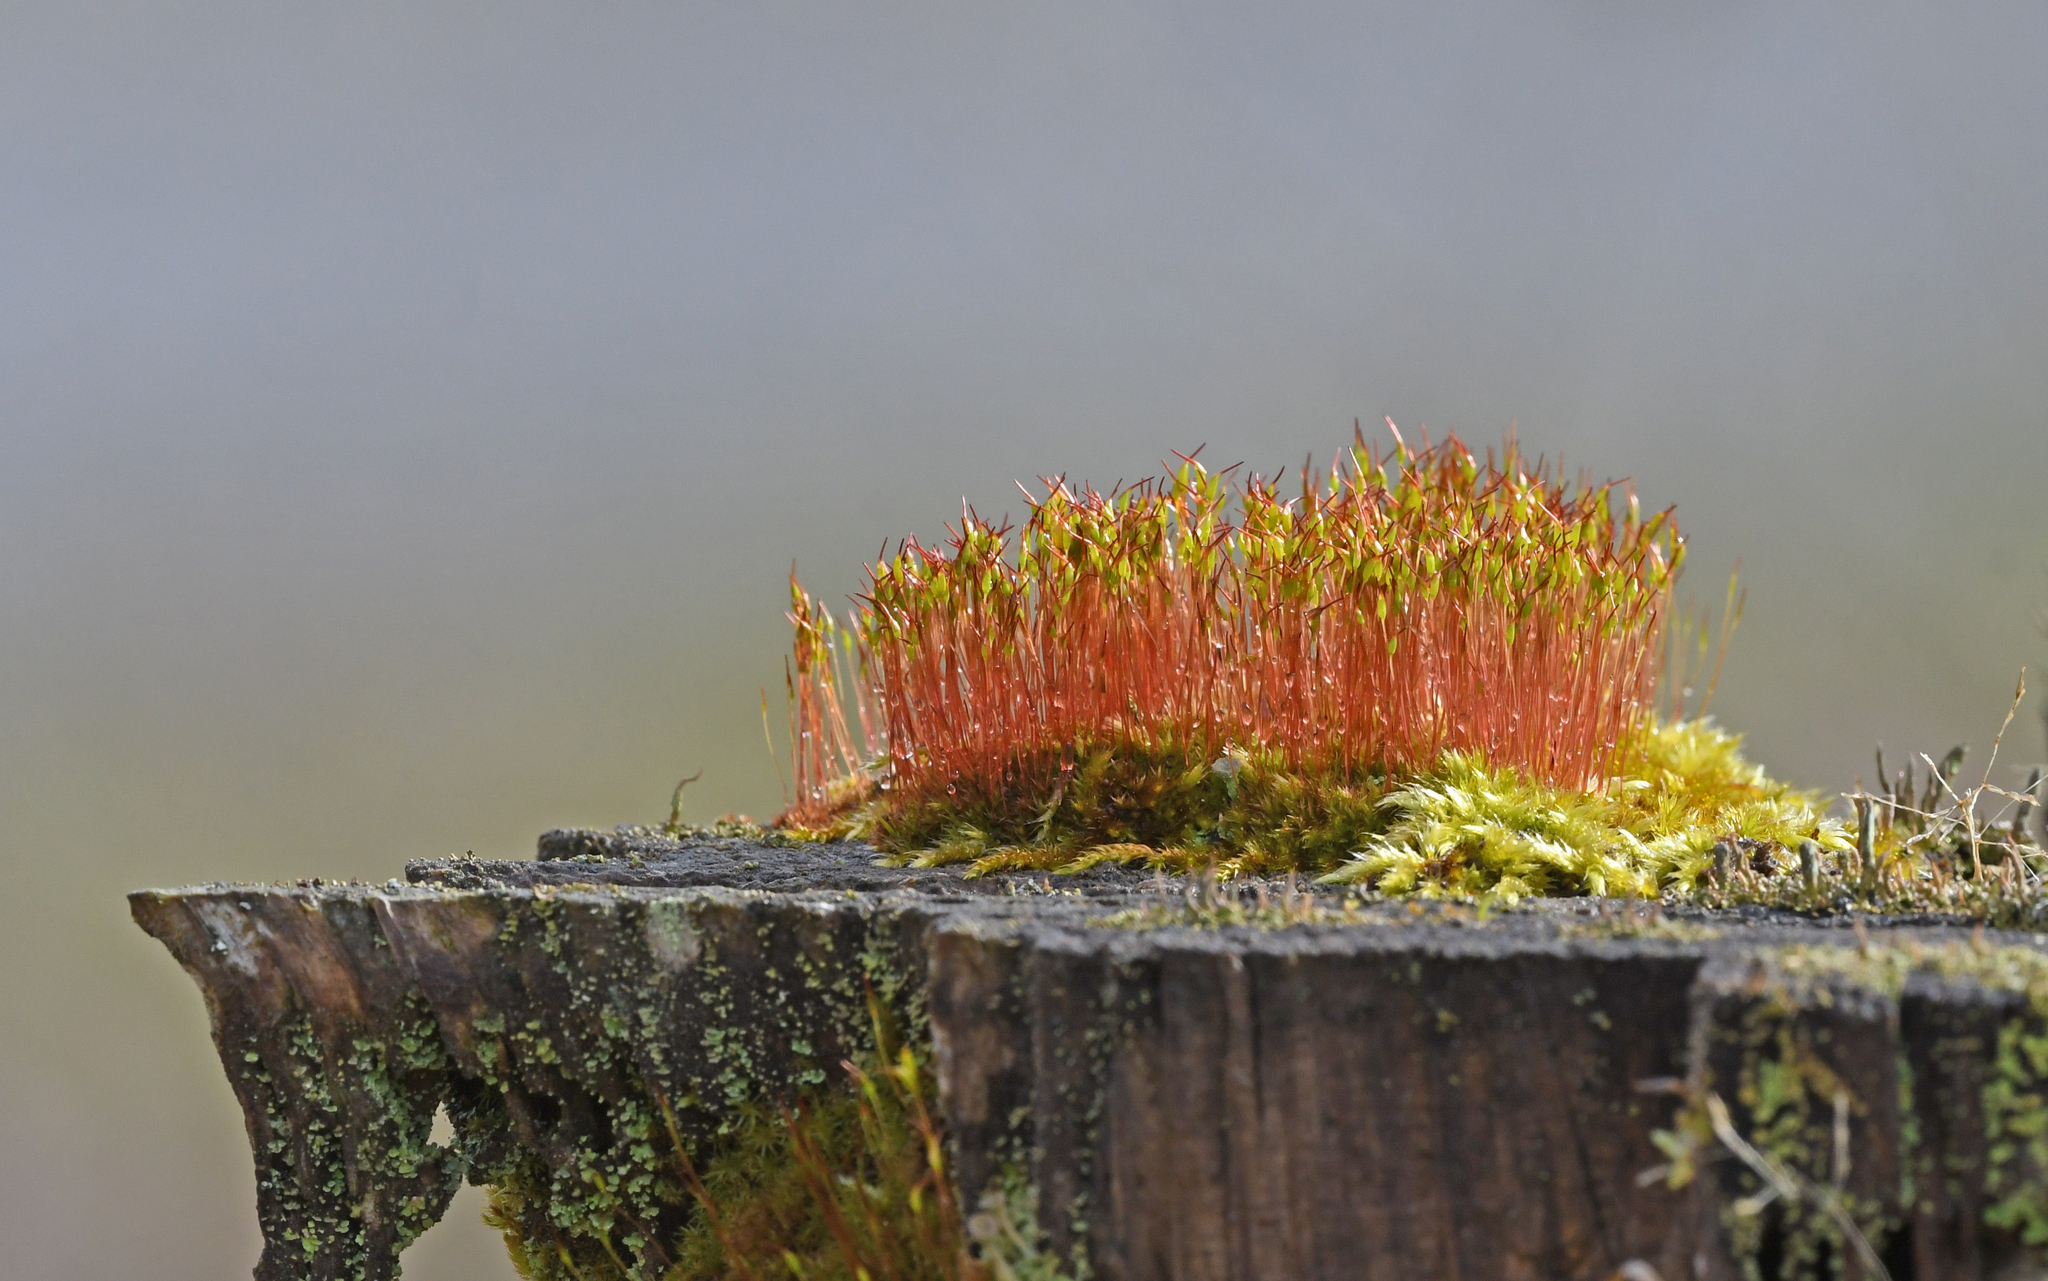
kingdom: Plantae
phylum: Bryophyta
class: Bryopsida
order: Dicranales
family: Ditrichaceae
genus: Ceratodon
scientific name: Ceratodon purpureus
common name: Redshank
